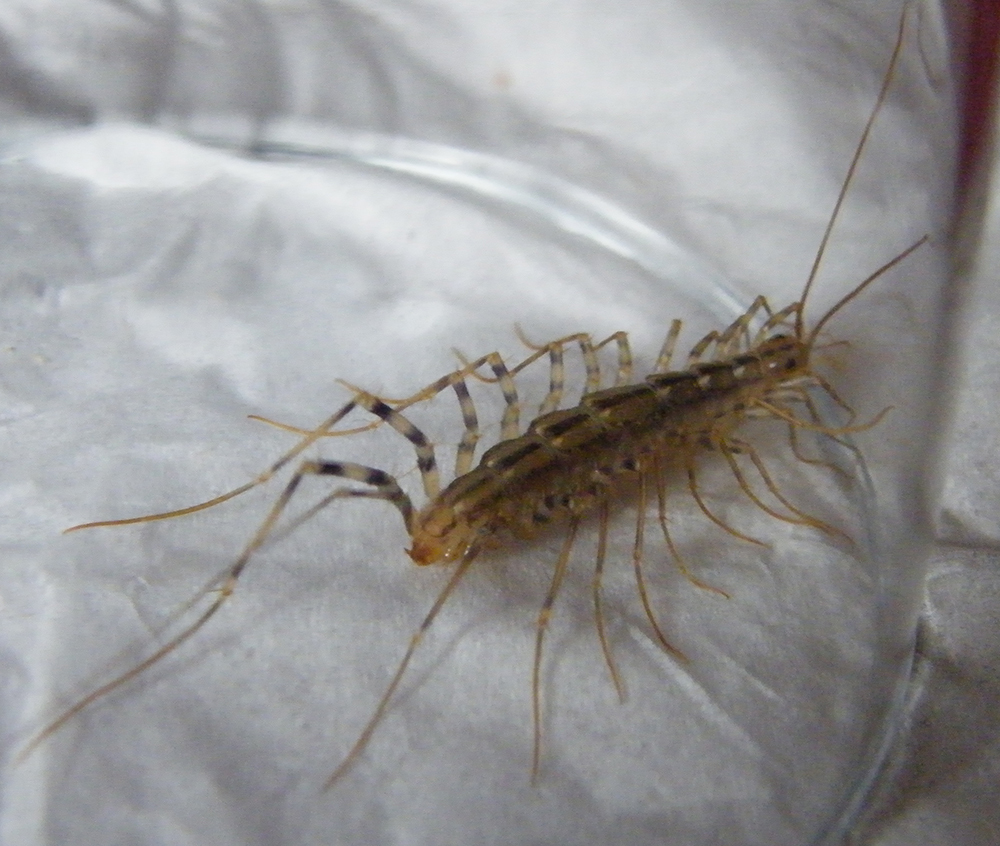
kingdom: Animalia
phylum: Arthropoda
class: Chilopoda
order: Scutigeromorpha
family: Scutigeridae
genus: Scutigera
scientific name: Scutigera coleoptrata
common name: House centipede
